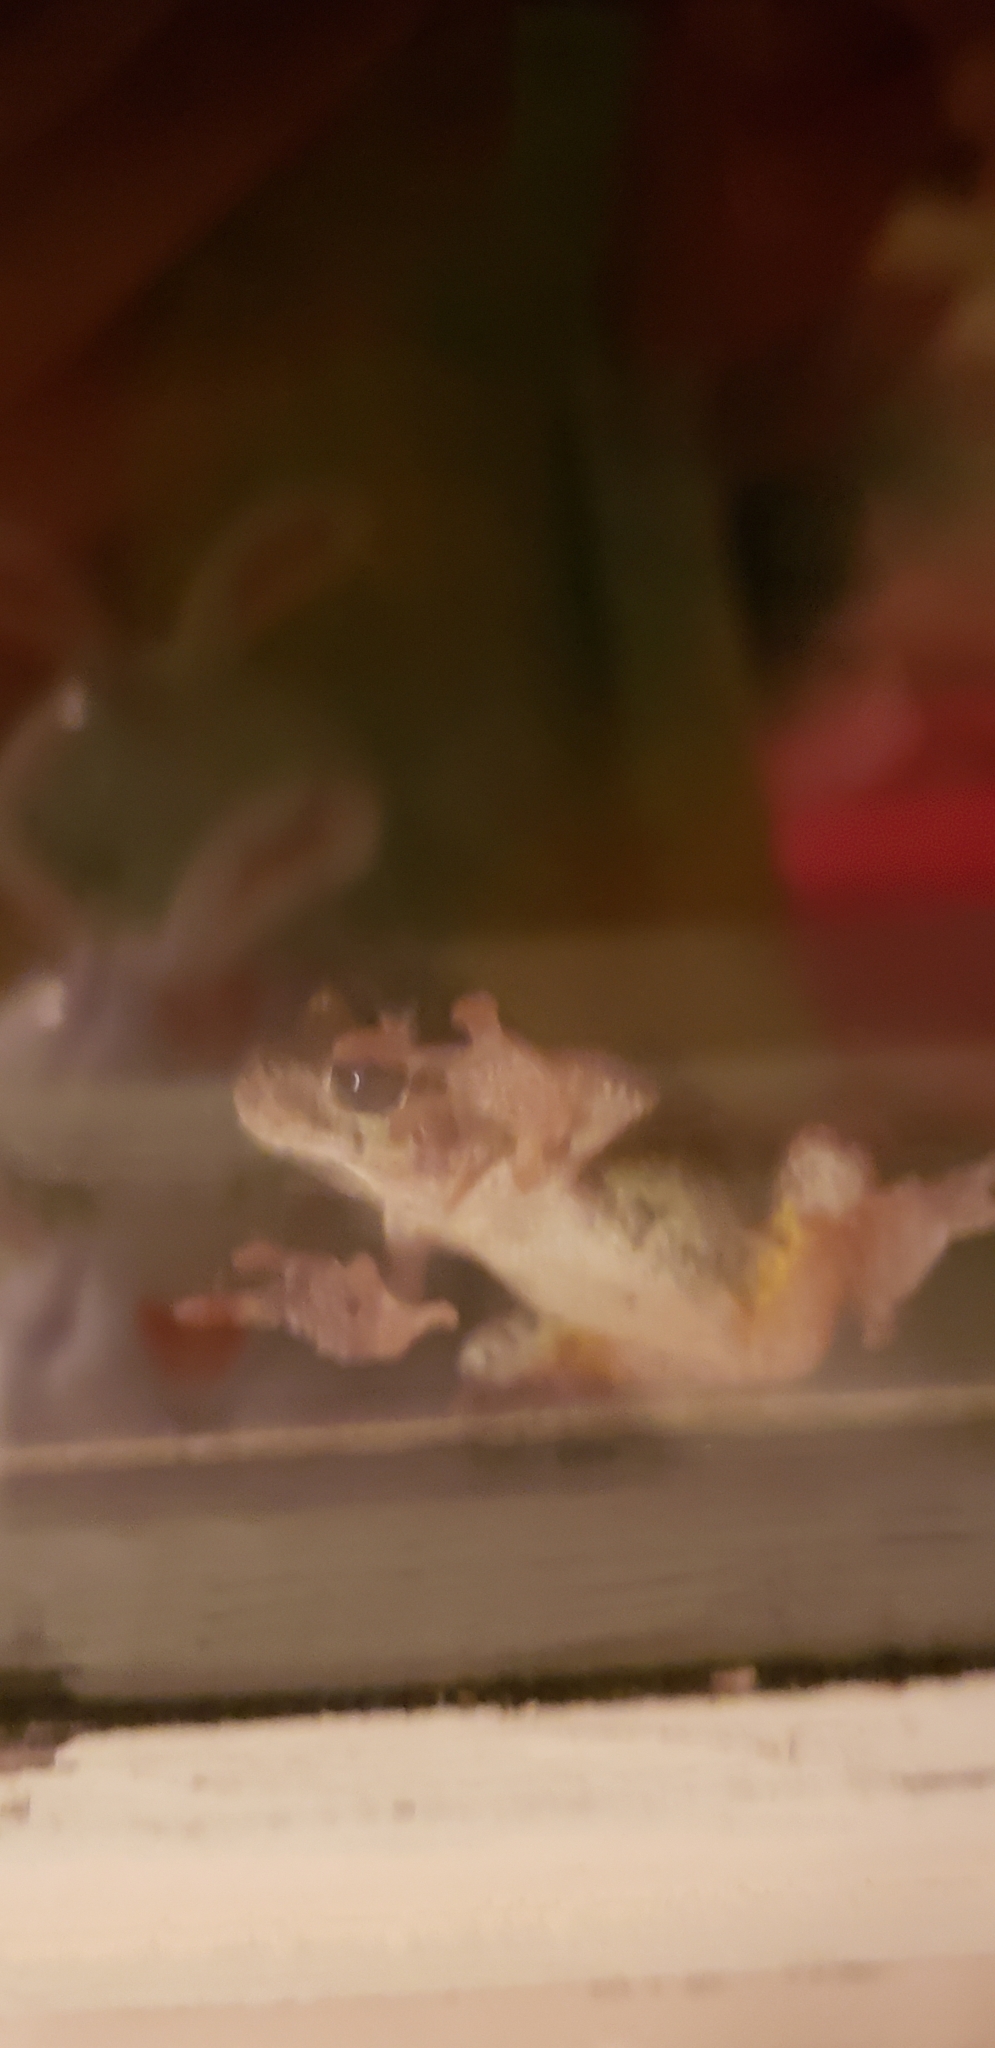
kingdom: Animalia
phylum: Chordata
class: Amphibia
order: Anura
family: Hylidae
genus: Dryophytes
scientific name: Dryophytes versicolor
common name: Gray treefrog
